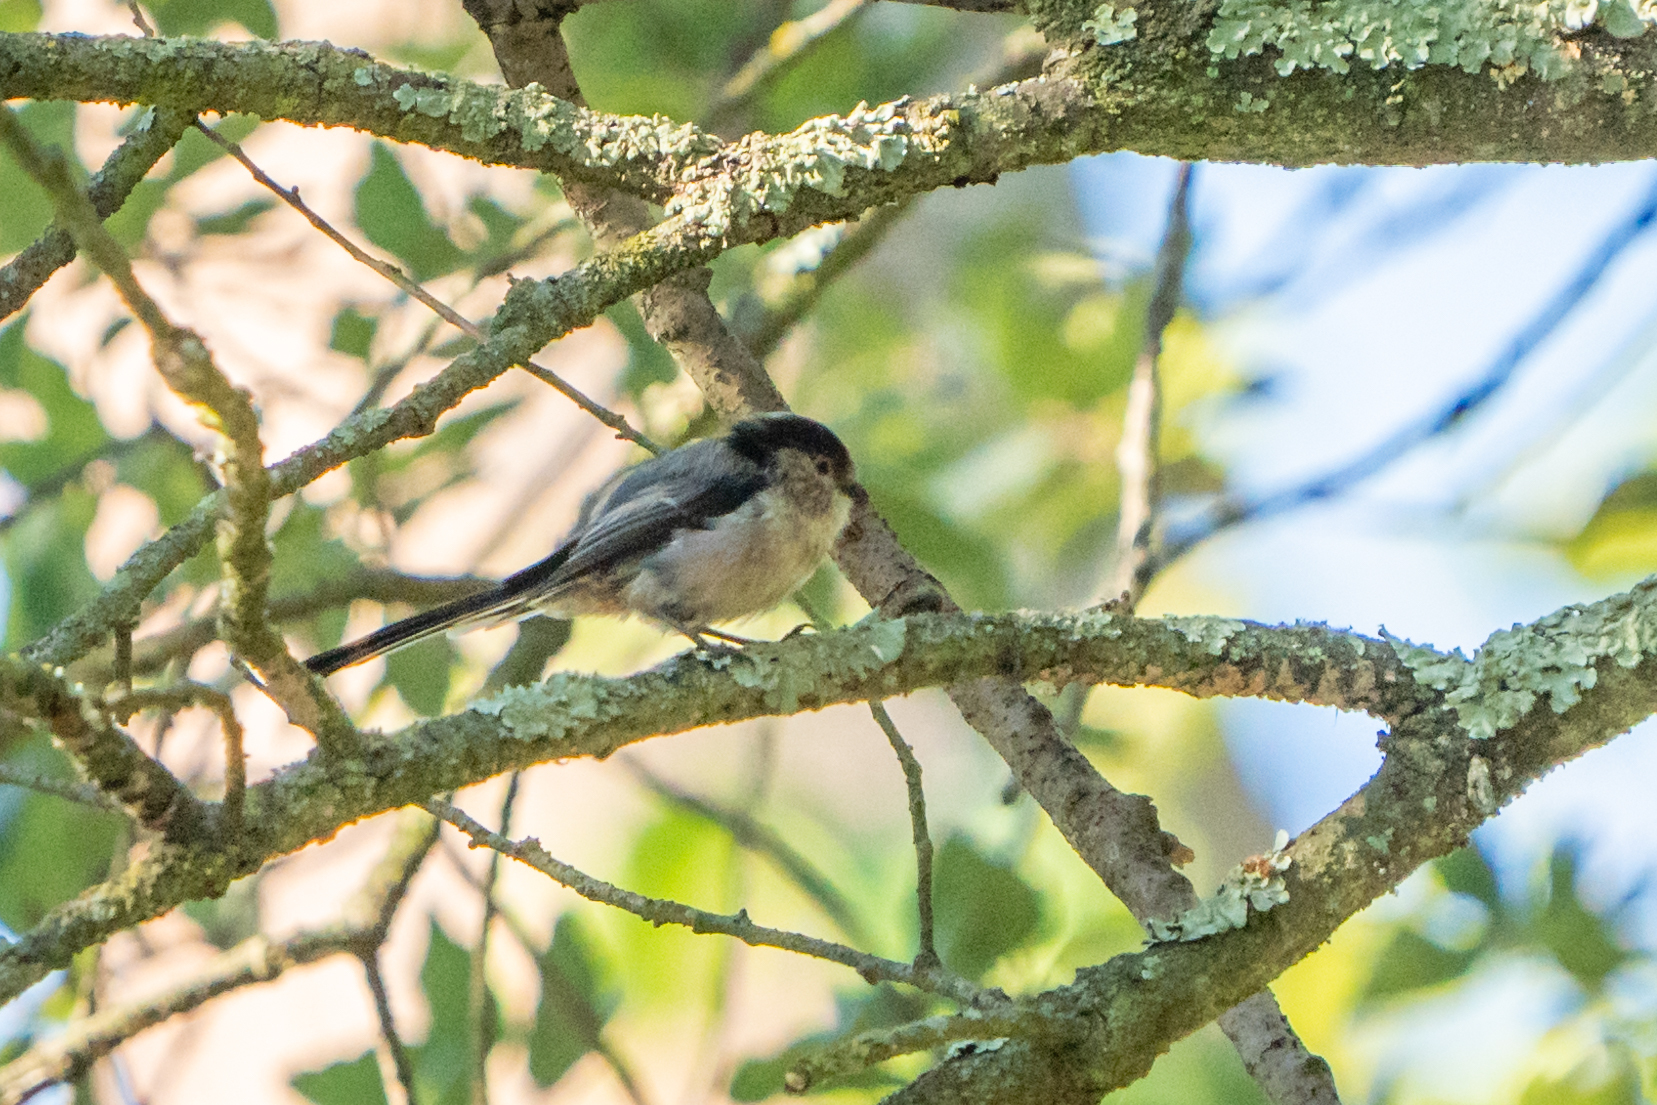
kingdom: Animalia
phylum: Chordata
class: Aves
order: Passeriformes
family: Aegithalidae
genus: Aegithalos
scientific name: Aegithalos caudatus
